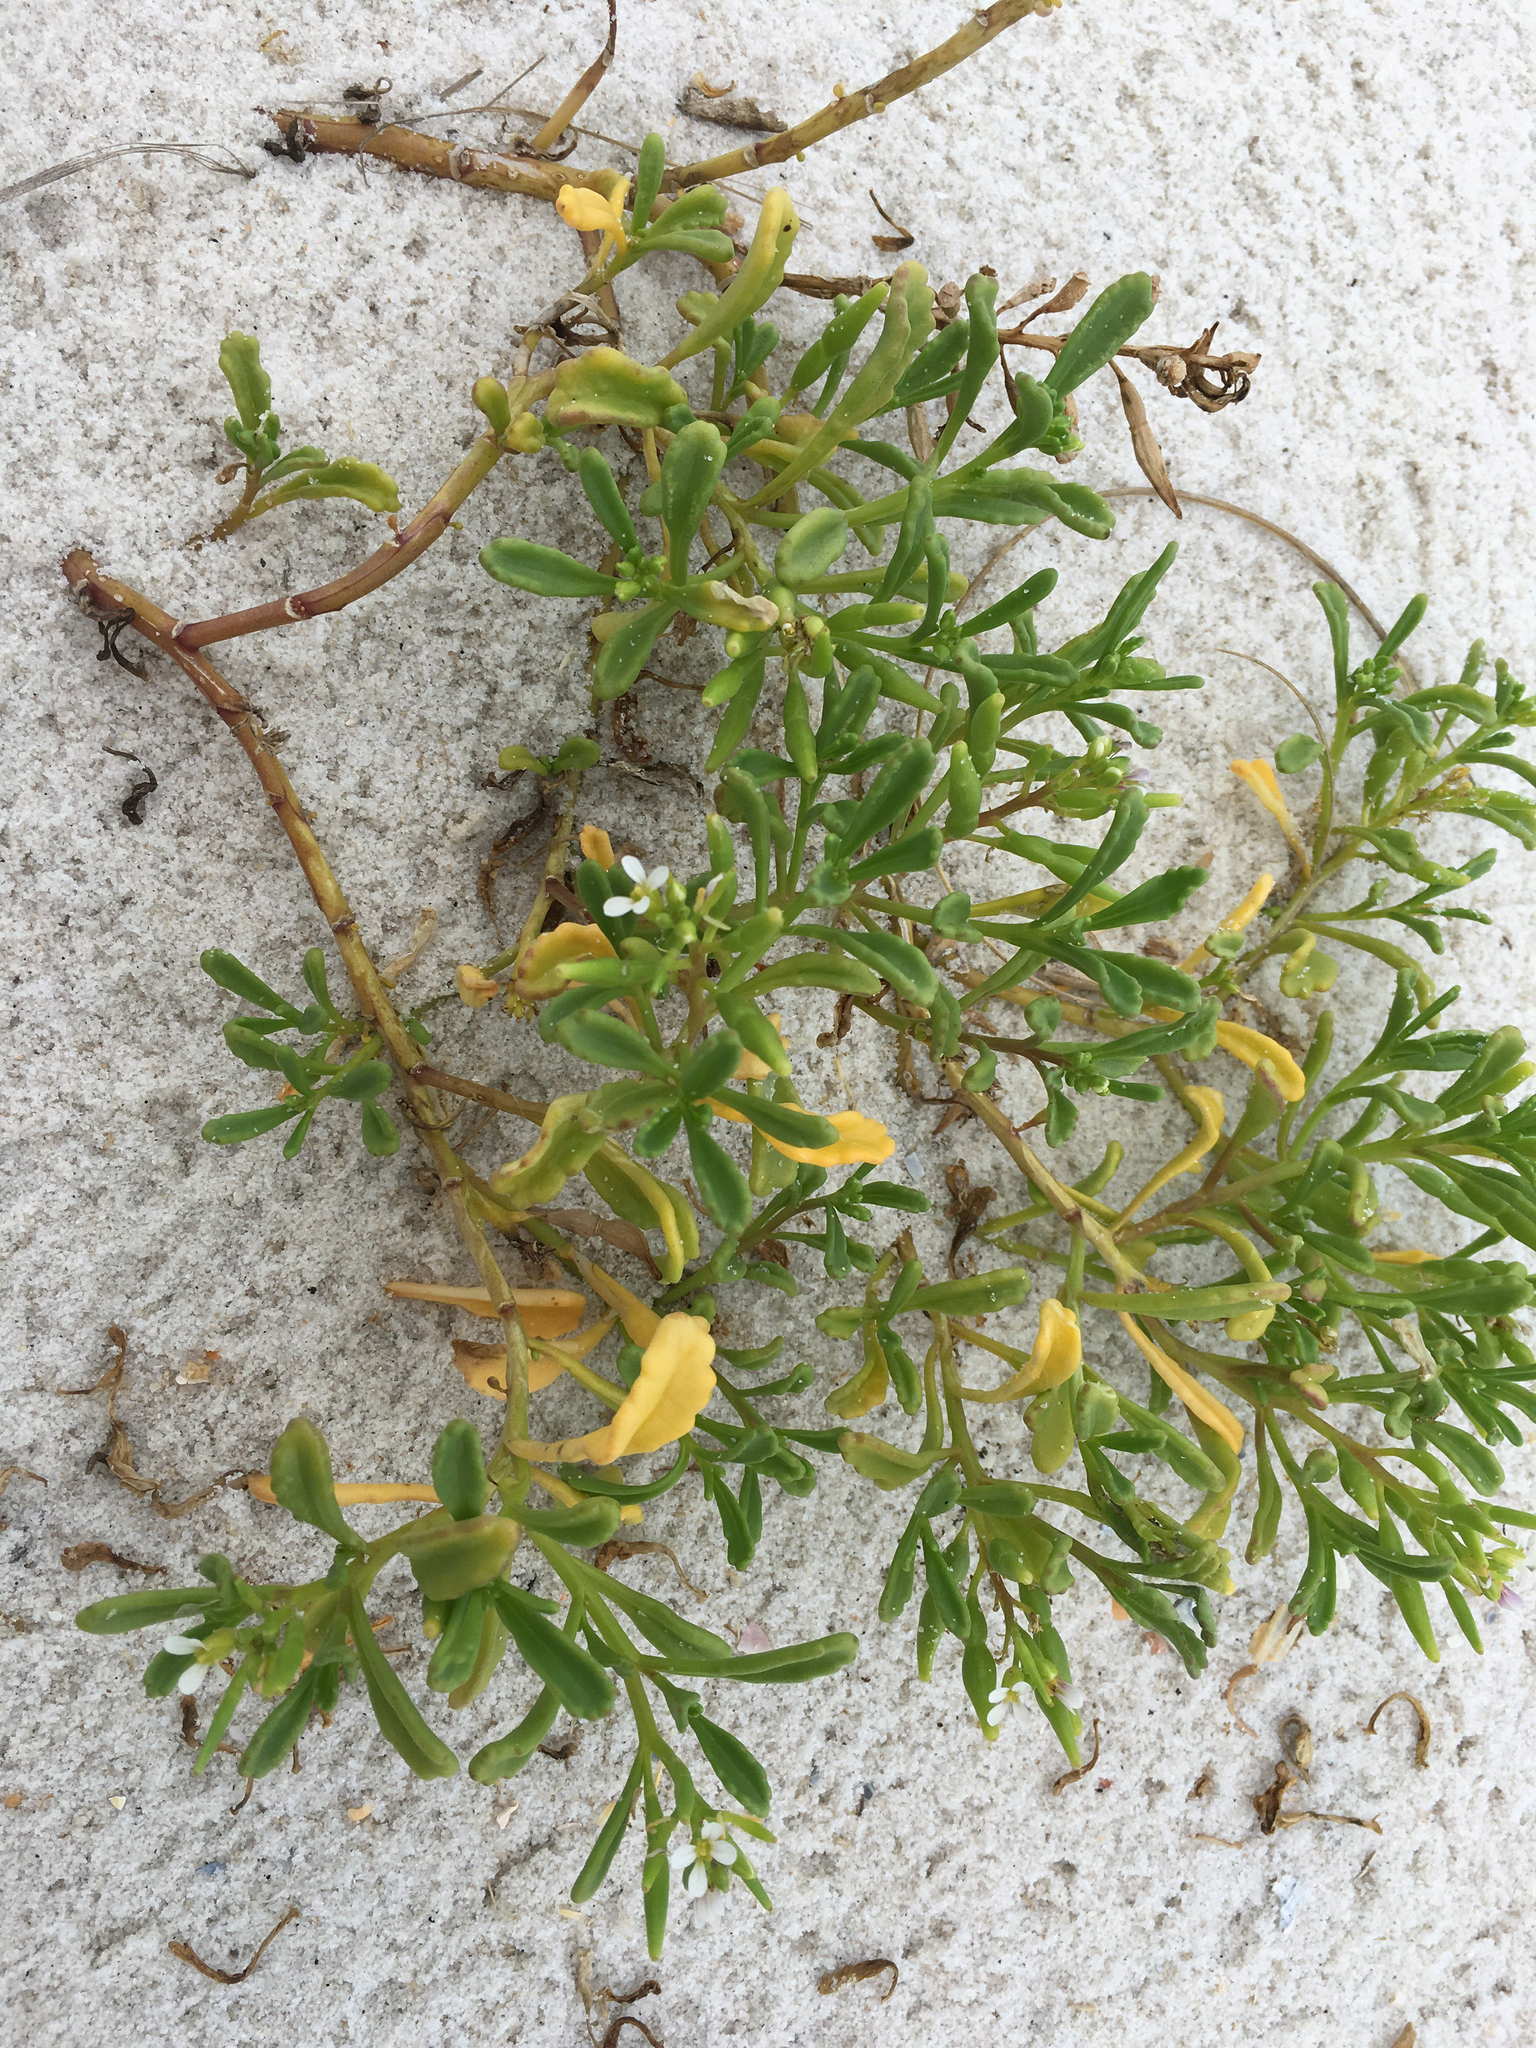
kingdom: Plantae
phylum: Tracheophyta
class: Magnoliopsida
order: Brassicales
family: Brassicaceae
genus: Cakile
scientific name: Cakile constricta
